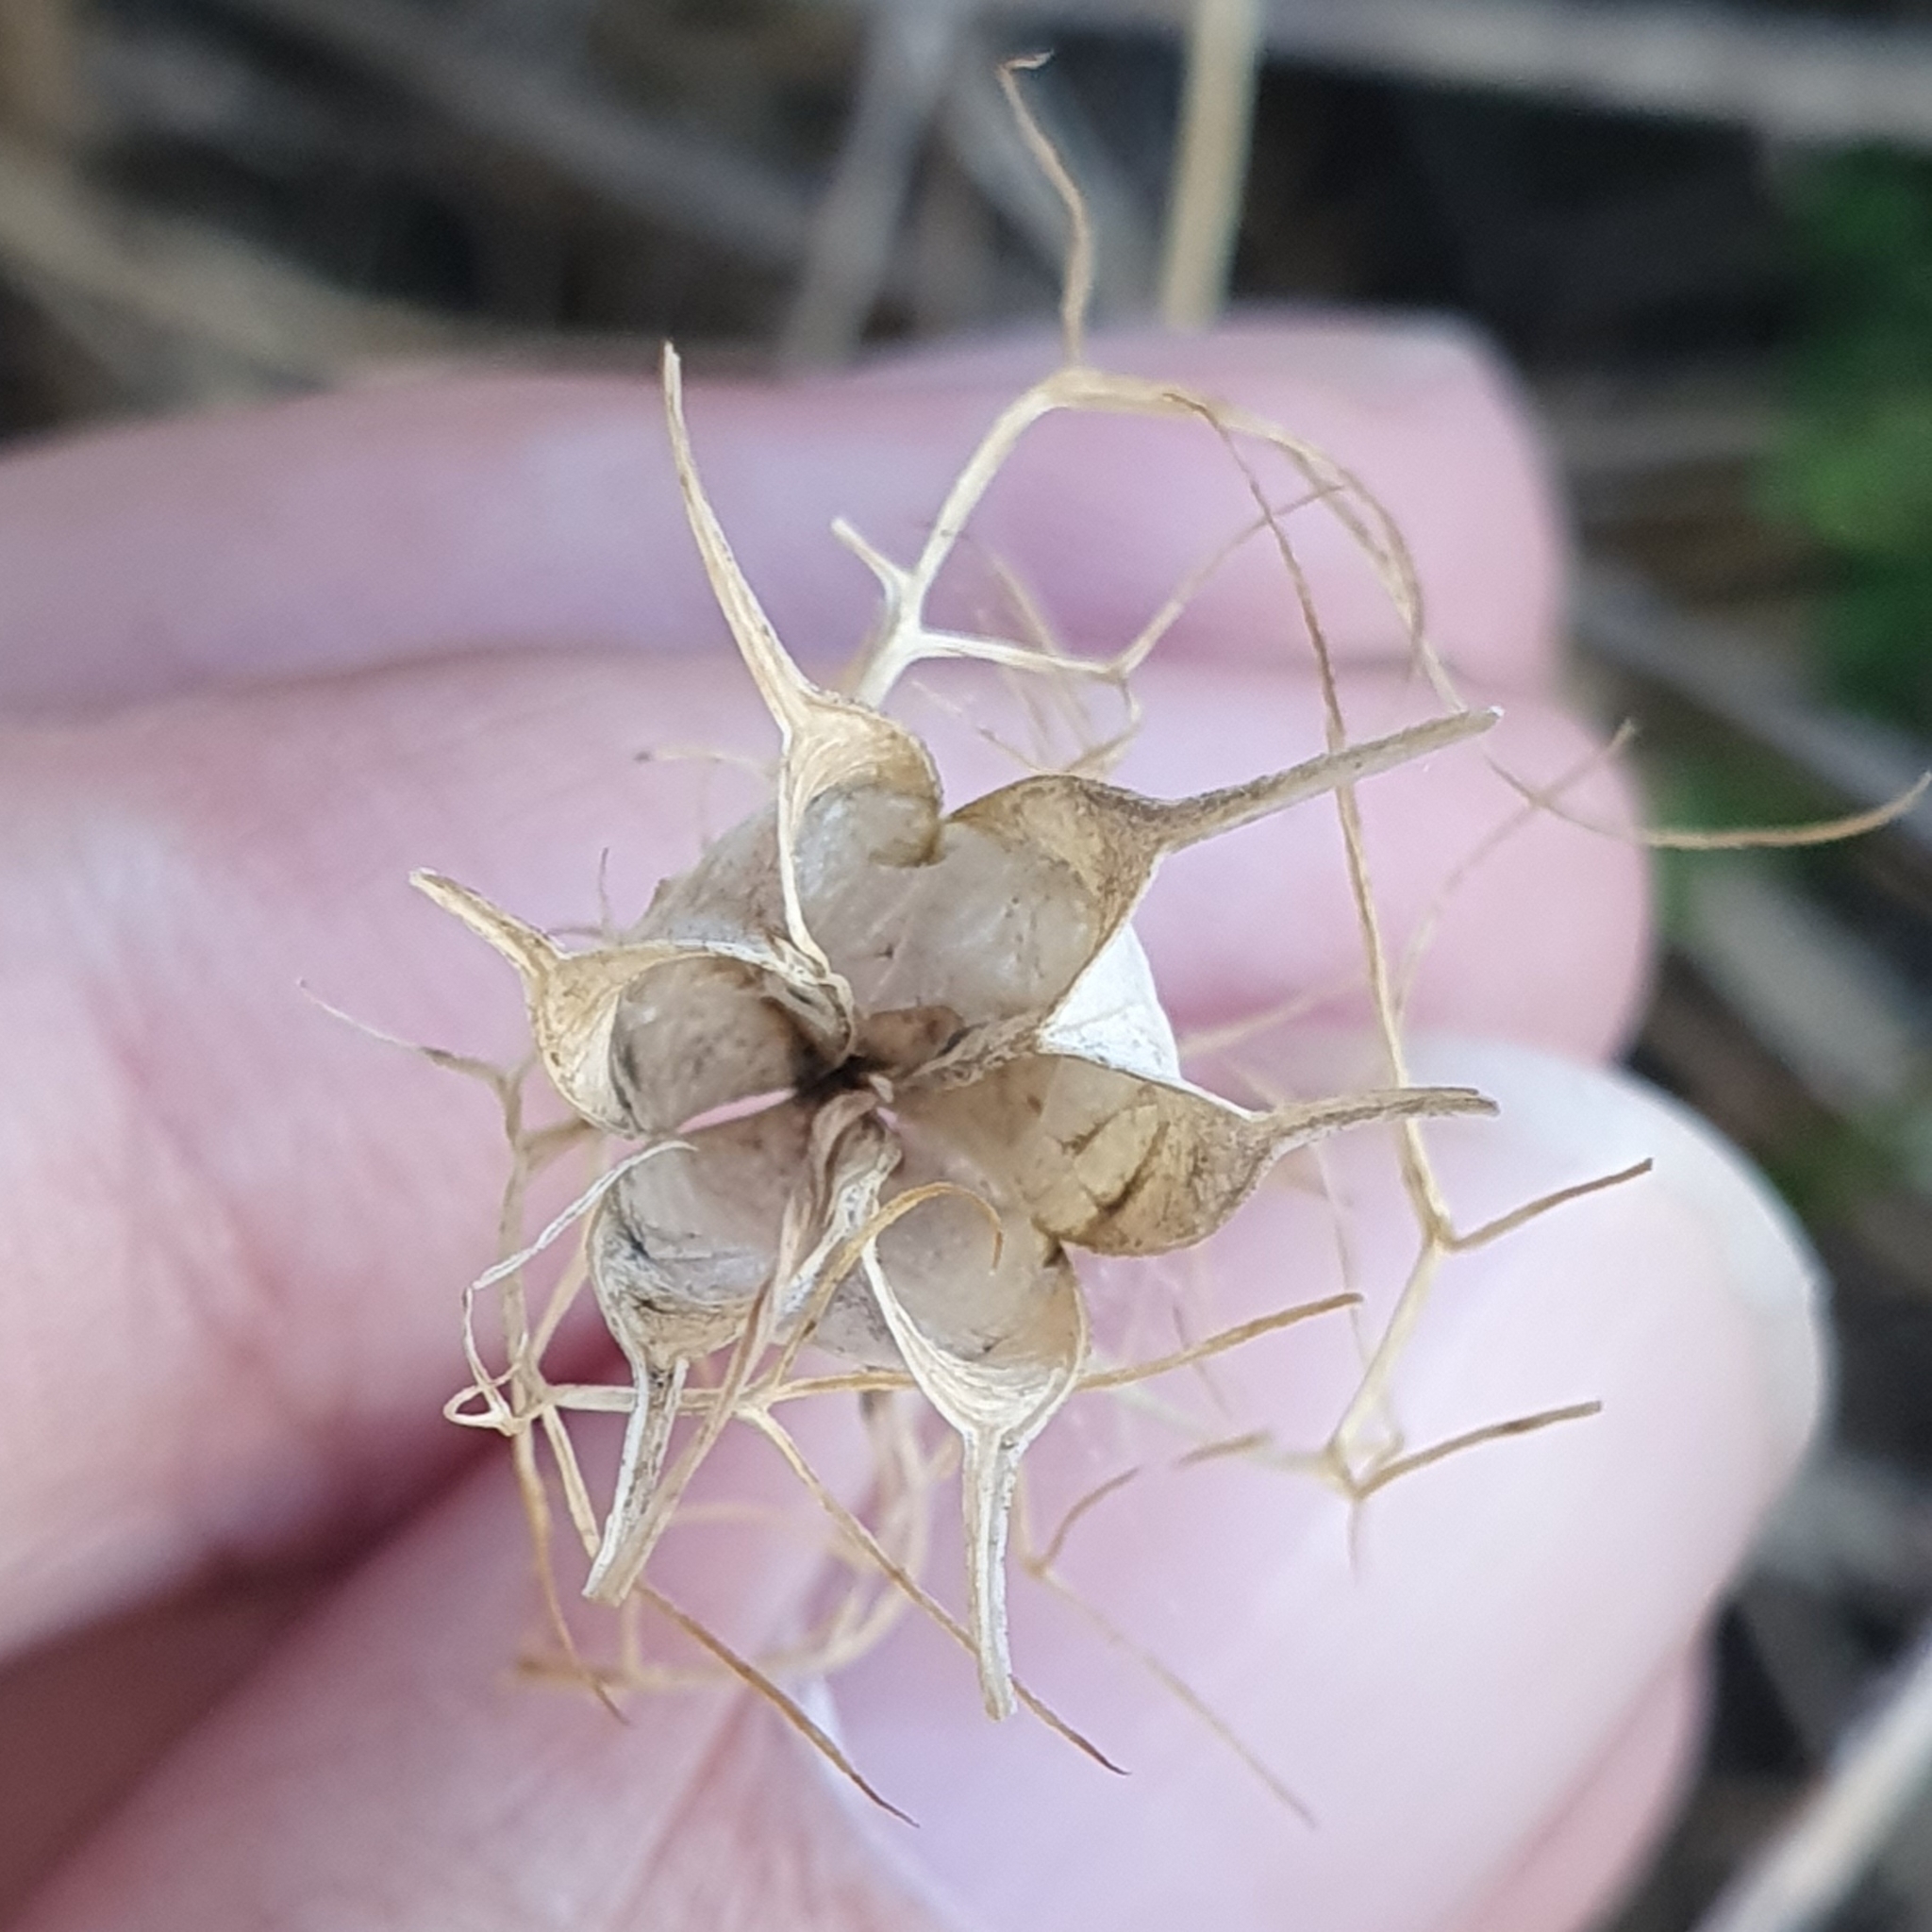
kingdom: Plantae
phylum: Tracheophyta
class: Magnoliopsida
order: Ranunculales
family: Ranunculaceae
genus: Nigella
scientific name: Nigella damascena
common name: Love-in-a-mist
